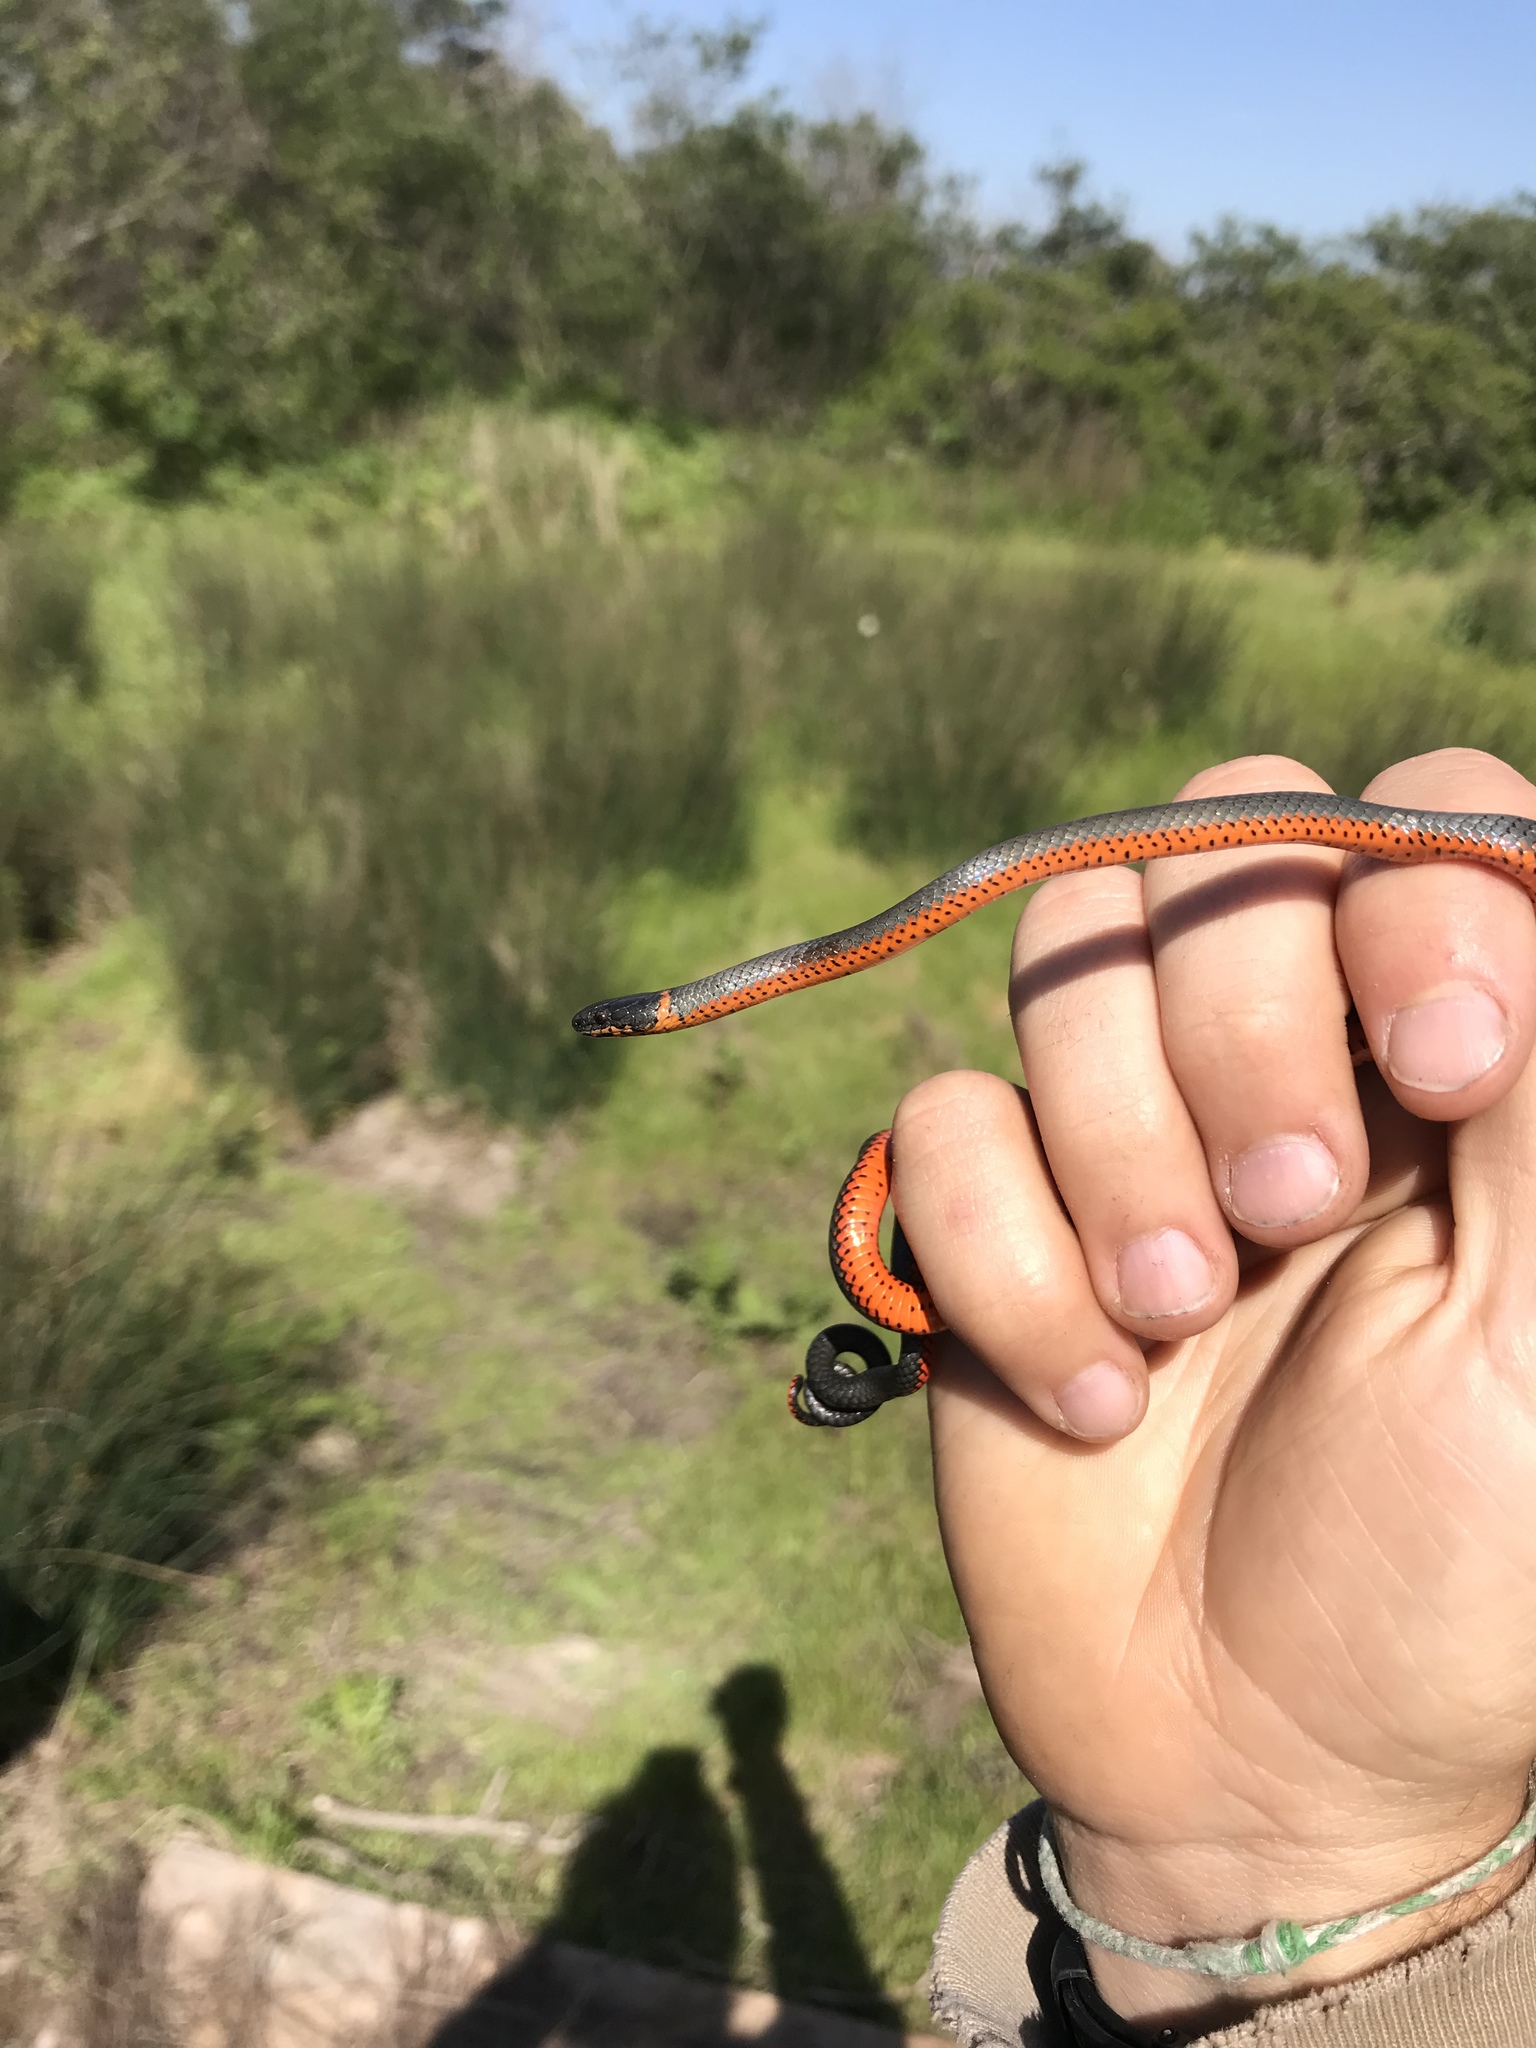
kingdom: Animalia
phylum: Chordata
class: Squamata
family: Colubridae
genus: Diadophis
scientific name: Diadophis punctatus
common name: Ringneck snake
